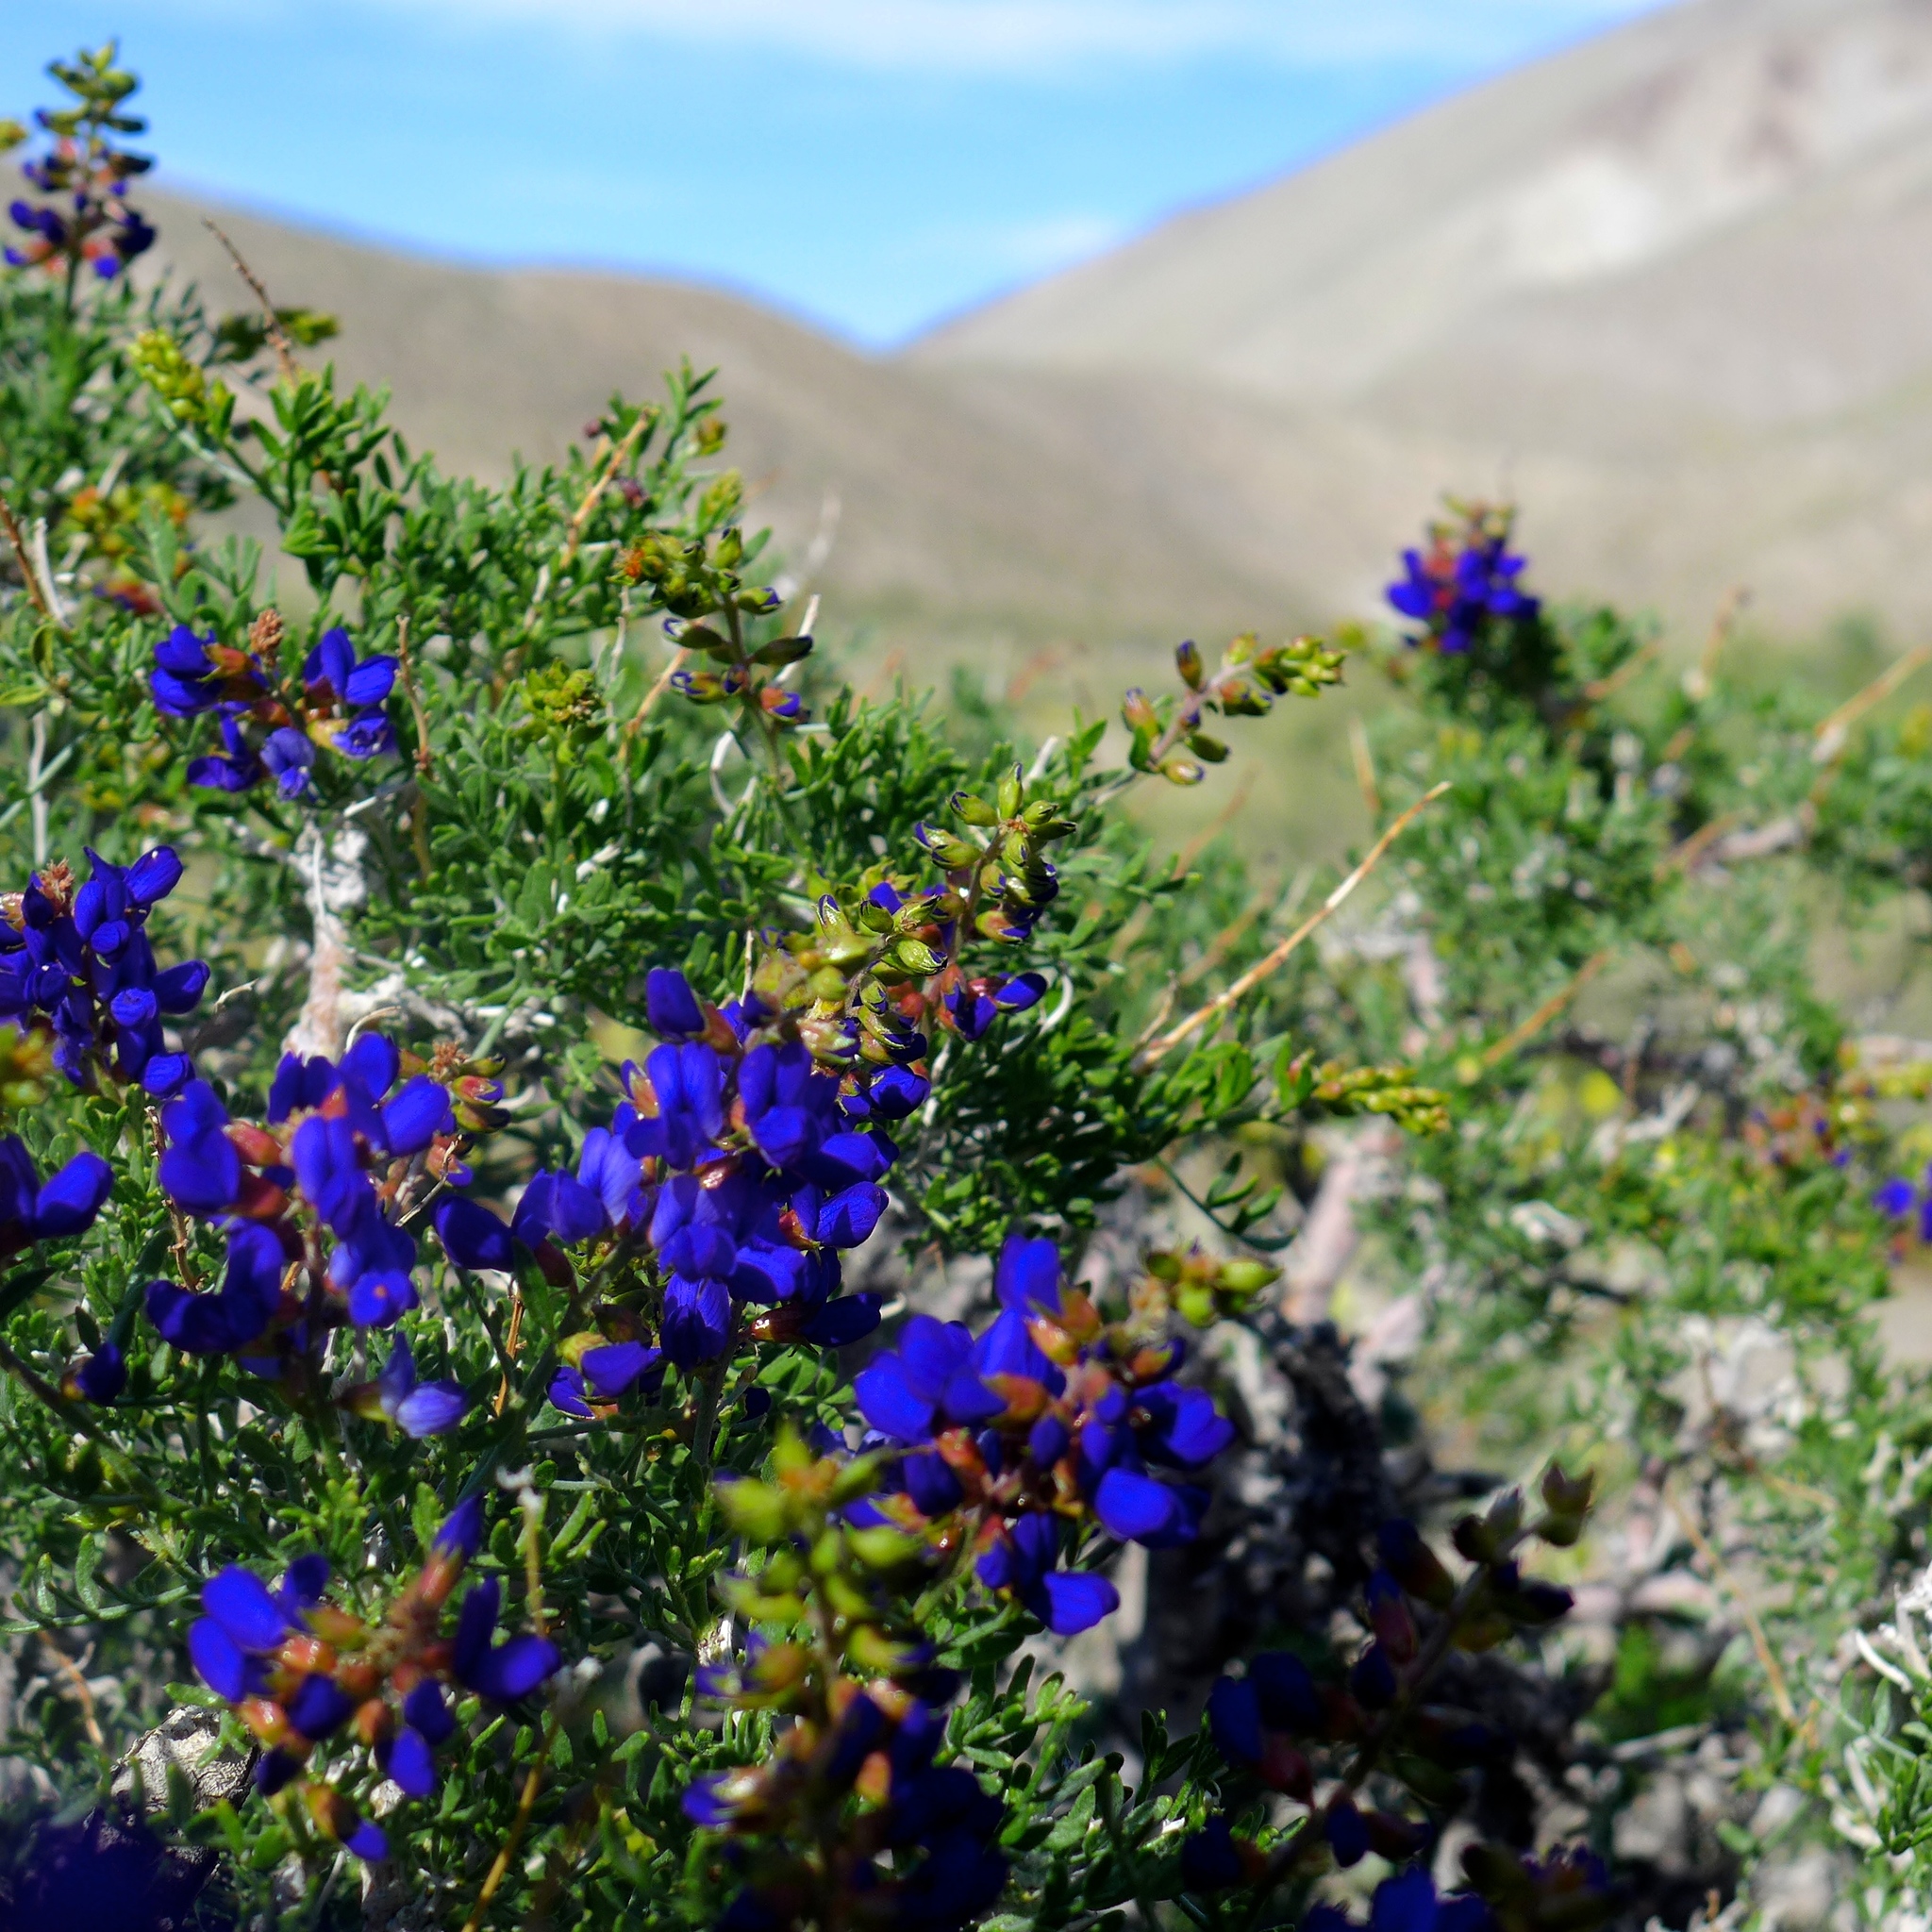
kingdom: Plantae
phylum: Tracheophyta
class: Magnoliopsida
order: Fabales
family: Fabaceae
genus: Psorothamnus
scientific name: Psorothamnus arborescens
